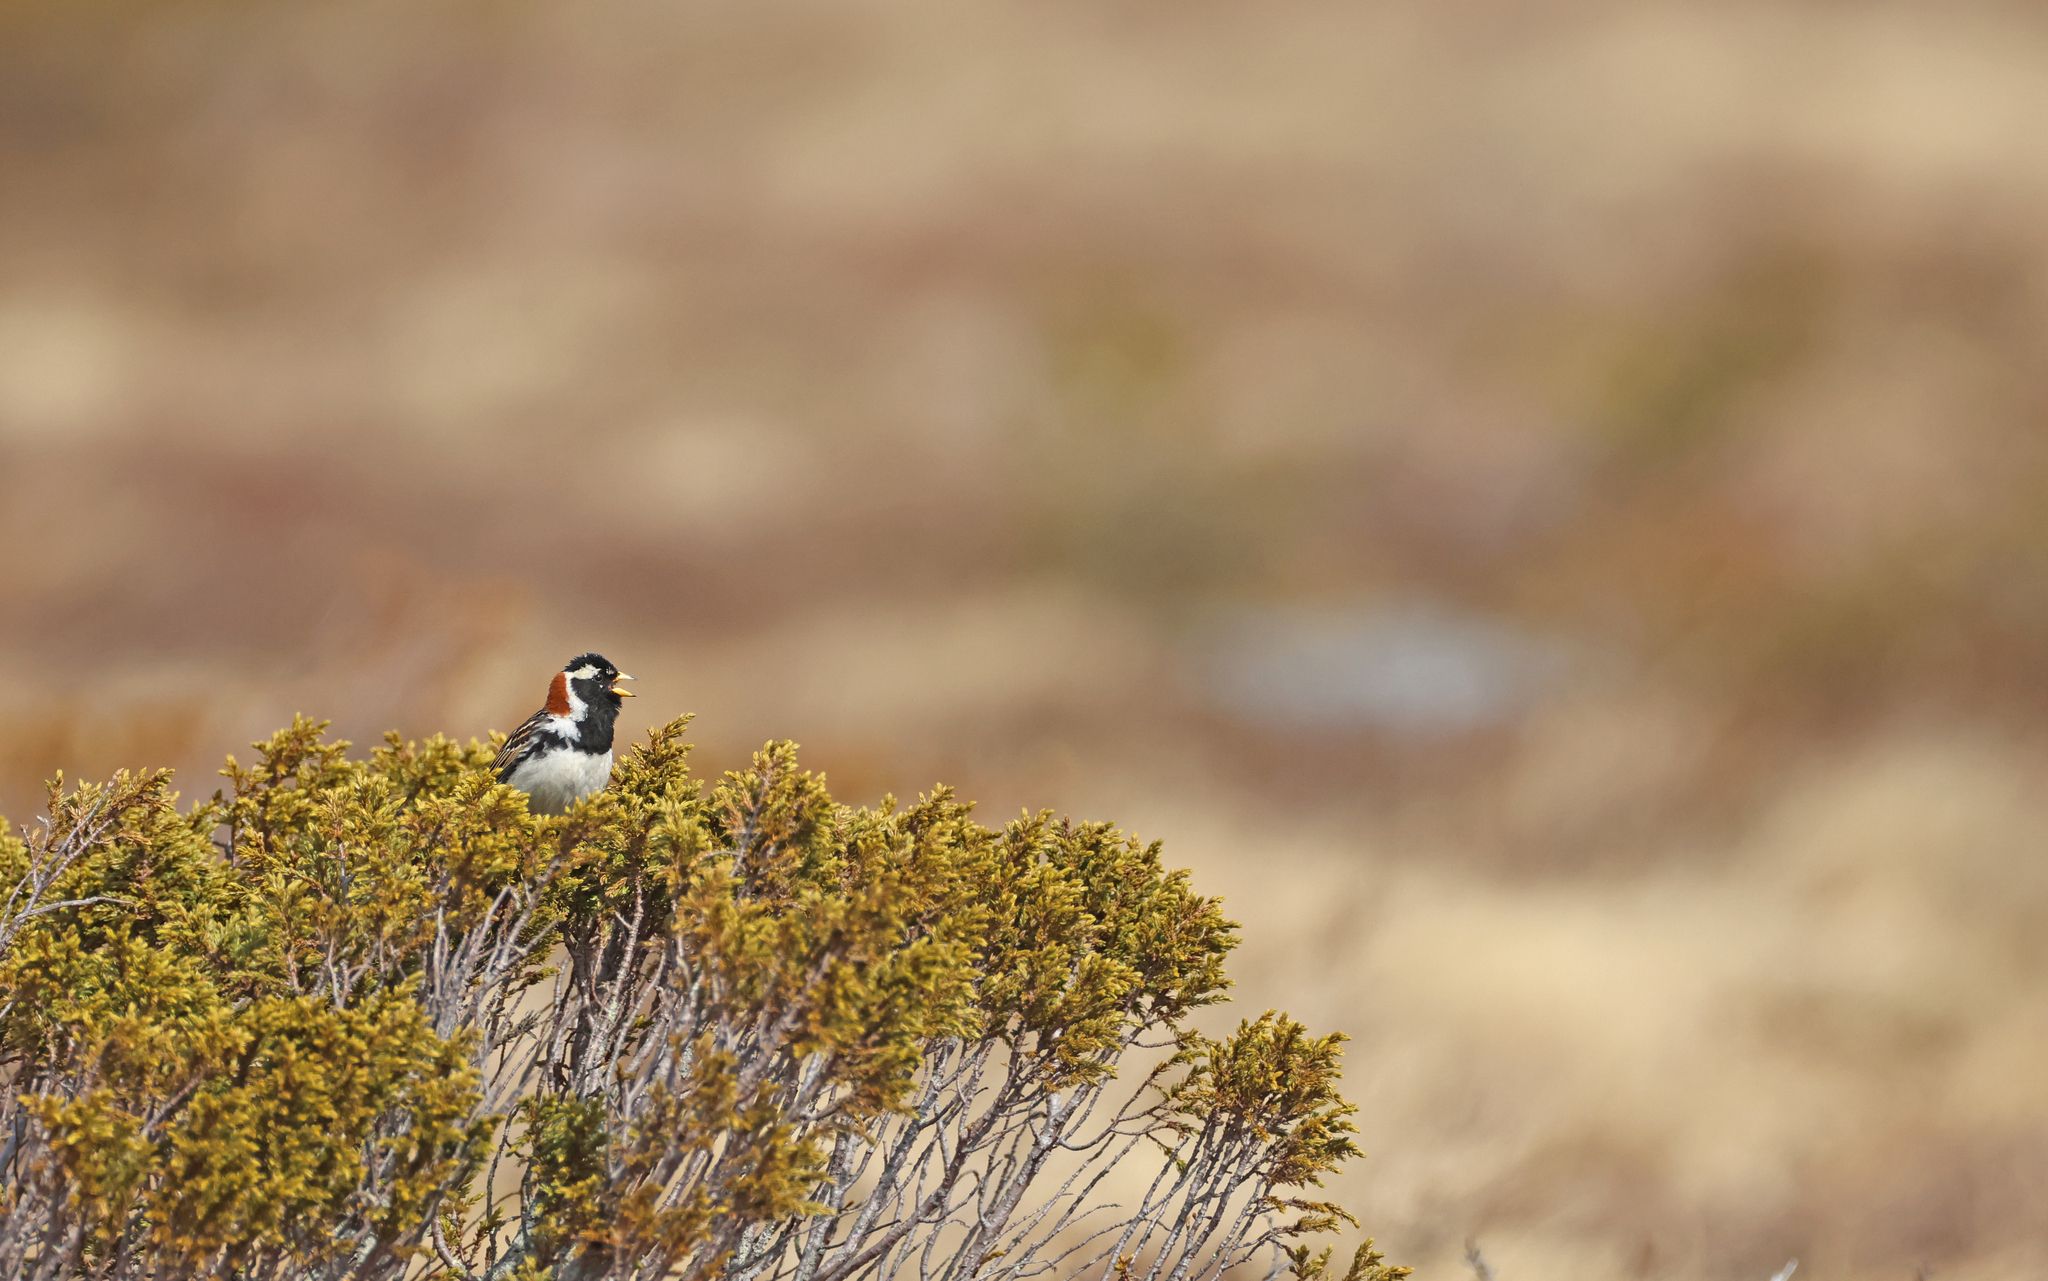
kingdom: Animalia
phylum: Chordata
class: Aves
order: Passeriformes
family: Calcariidae
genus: Calcarius
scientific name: Calcarius lapponicus
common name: Lapland longspur
